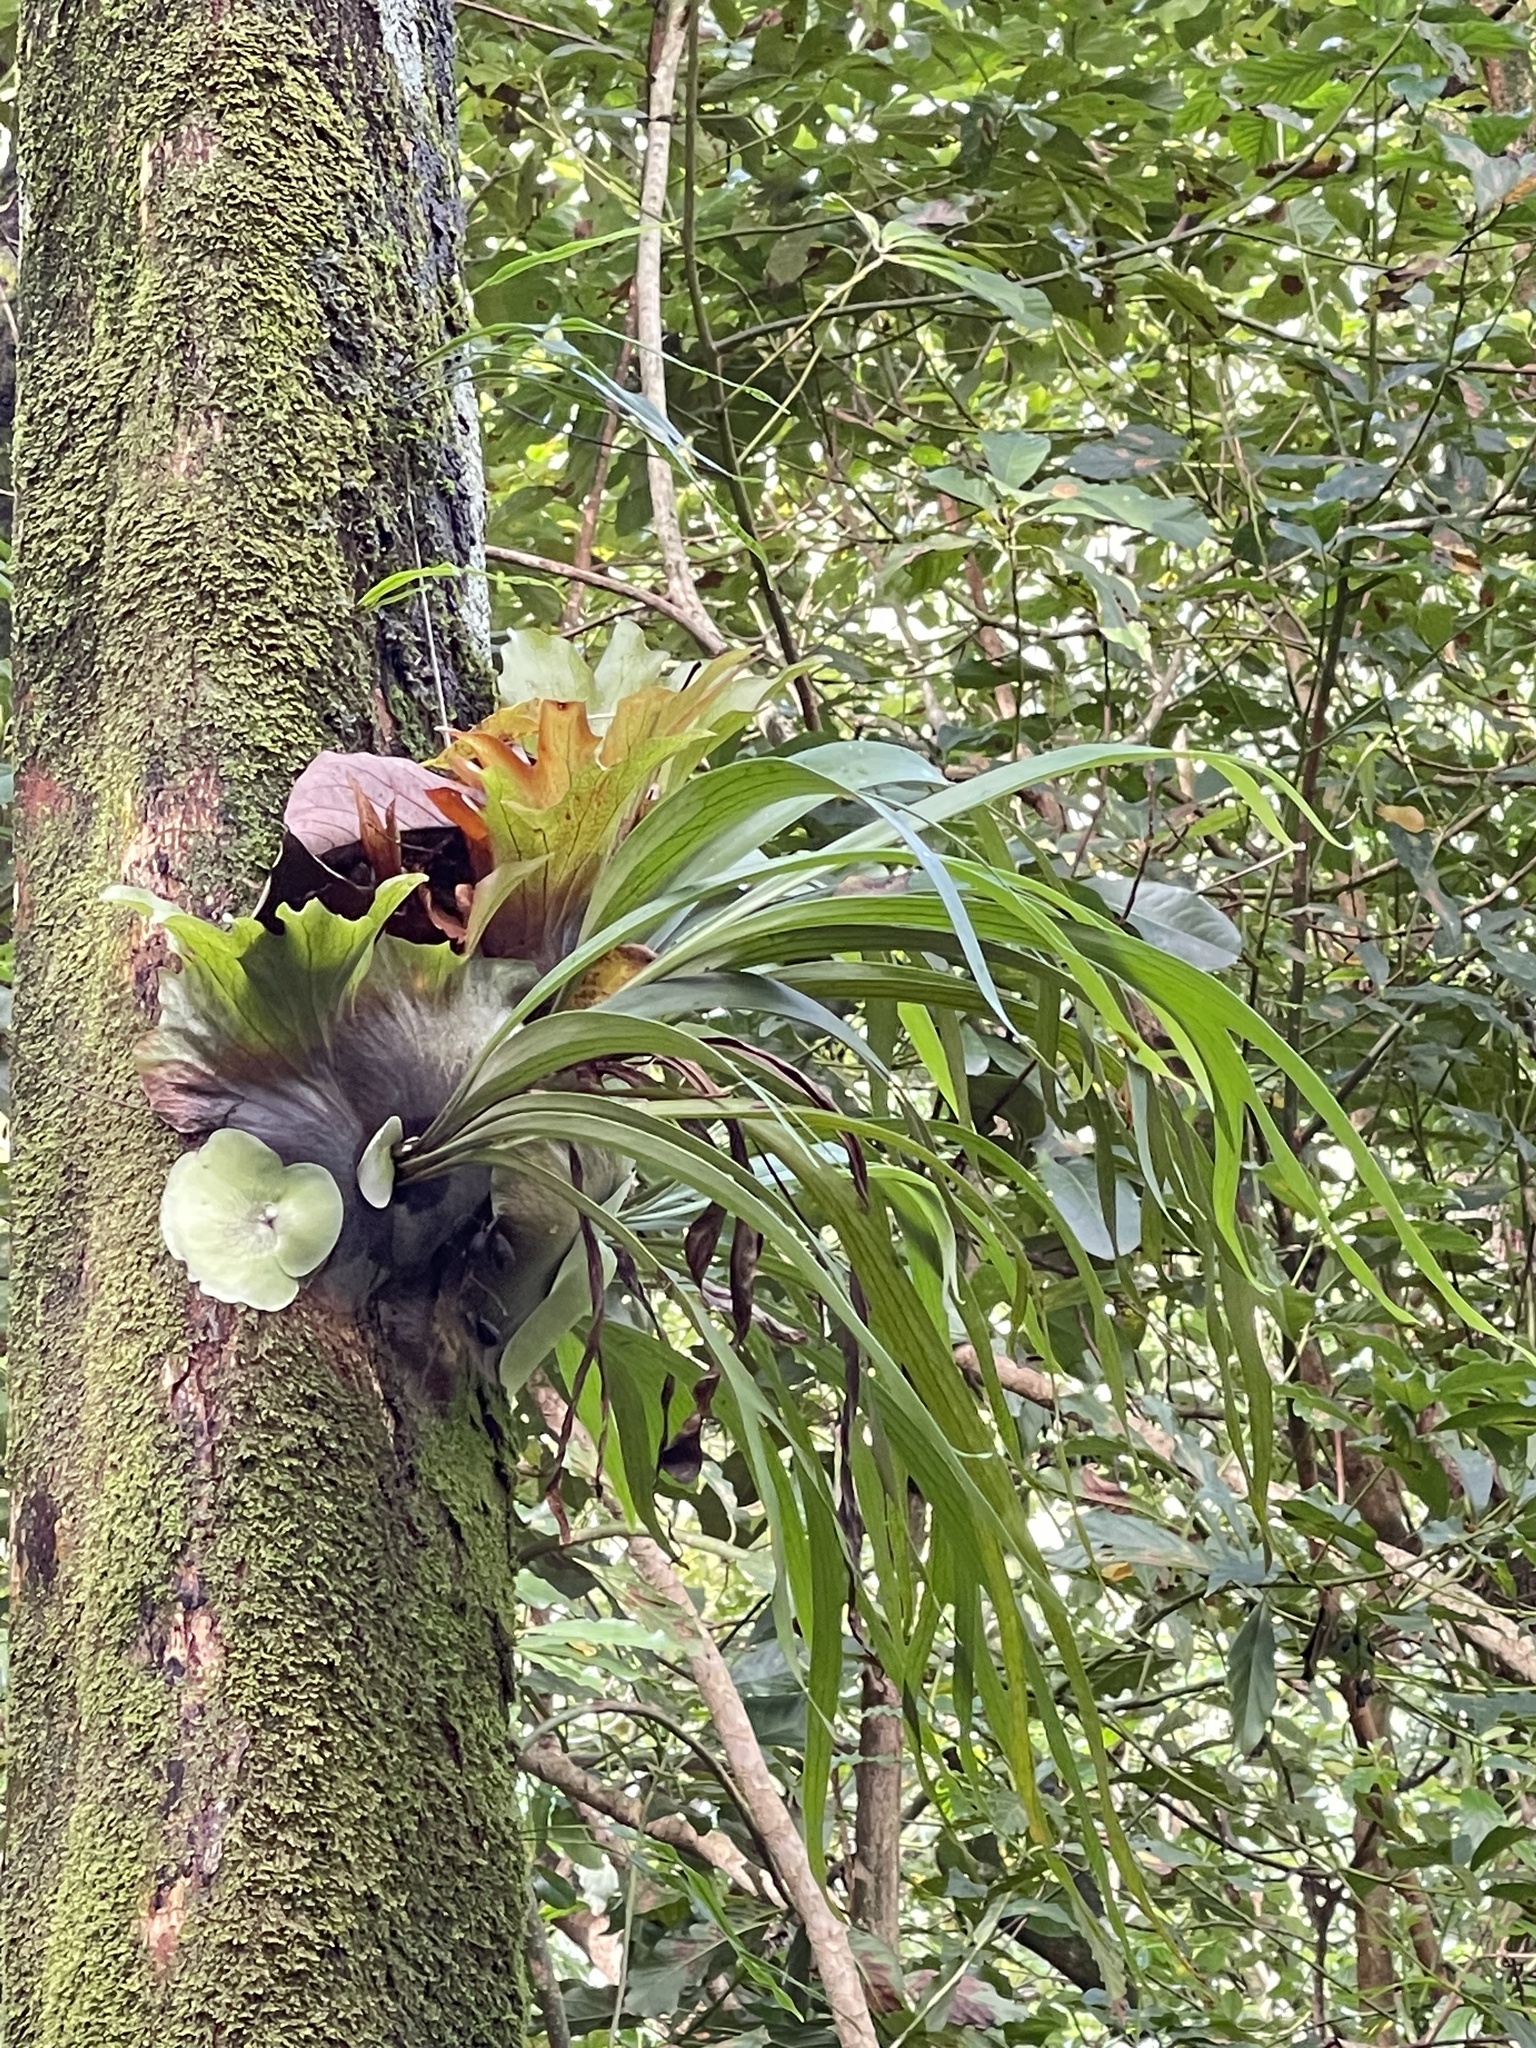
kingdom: Plantae
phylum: Tracheophyta
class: Polypodiopsida
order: Polypodiales
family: Polypodiaceae
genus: Platycerium
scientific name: Platycerium bifurcatum
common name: Elkhorn fern
